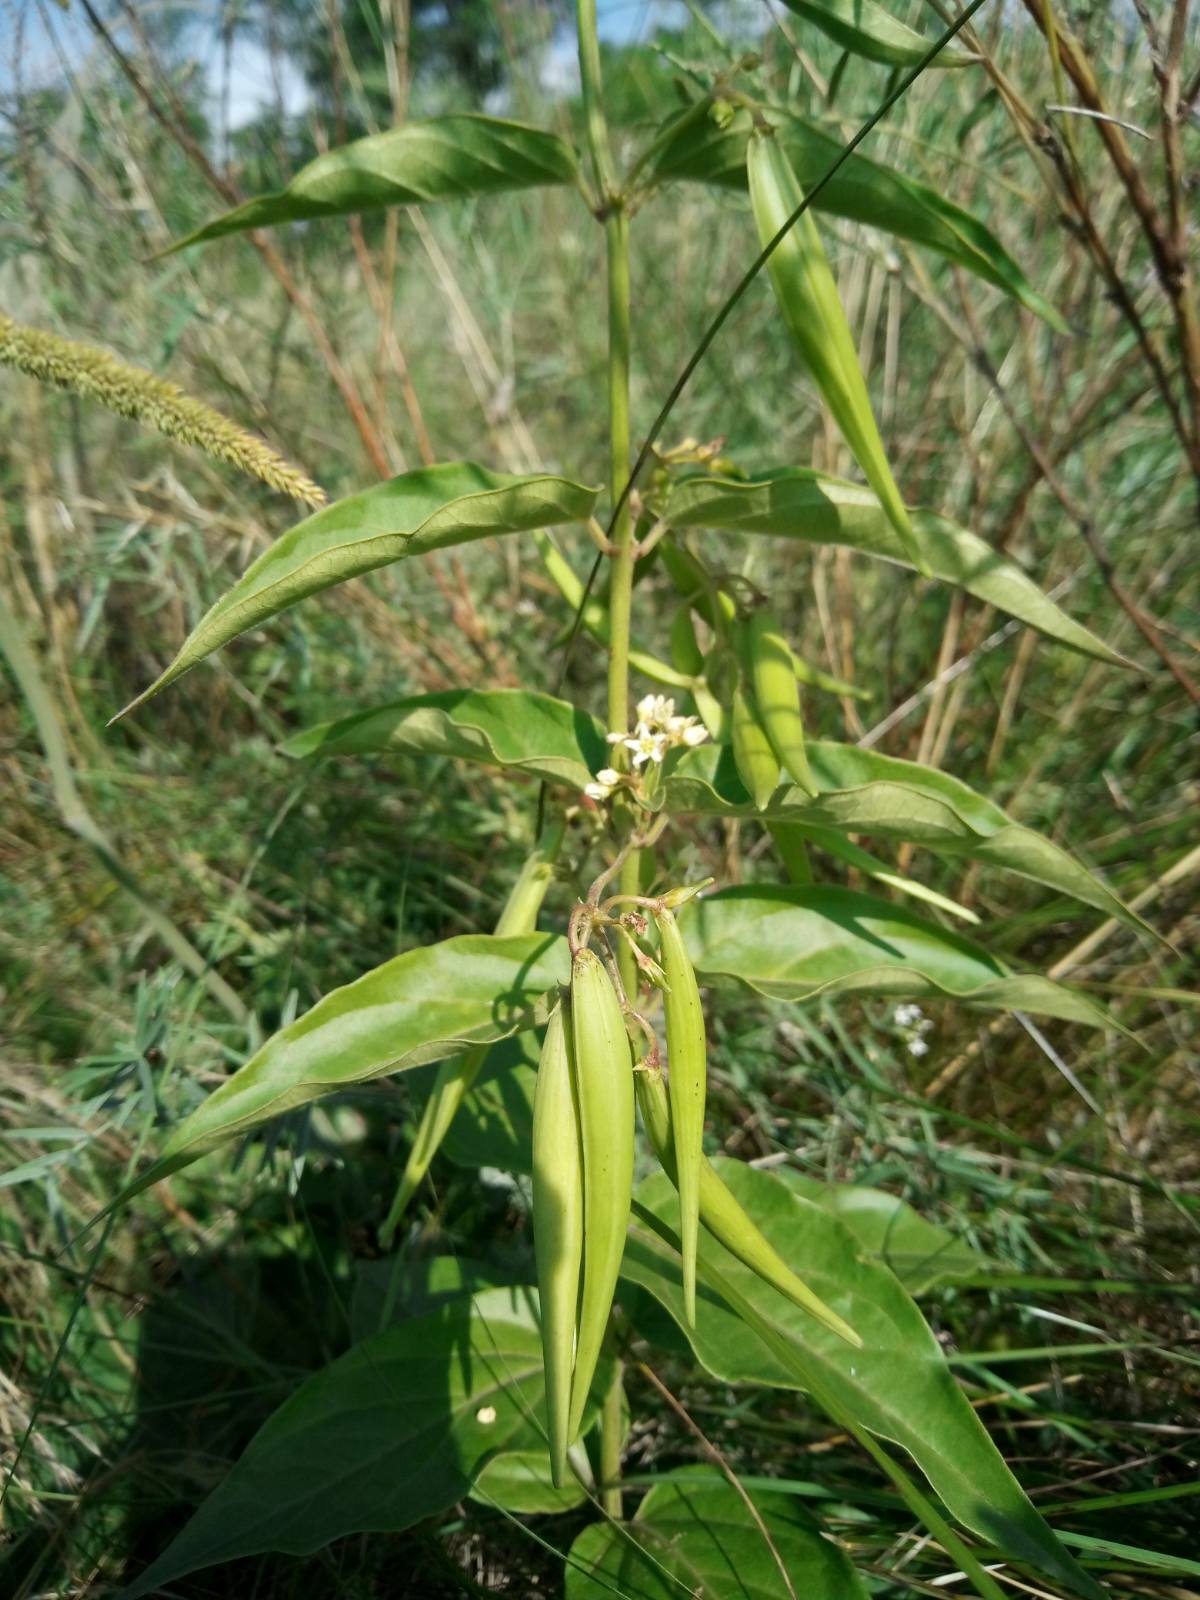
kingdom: Plantae
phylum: Tracheophyta
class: Magnoliopsida
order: Gentianales
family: Apocynaceae
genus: Vincetoxicum
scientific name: Vincetoxicum hirundinaria
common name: White swallowwort
